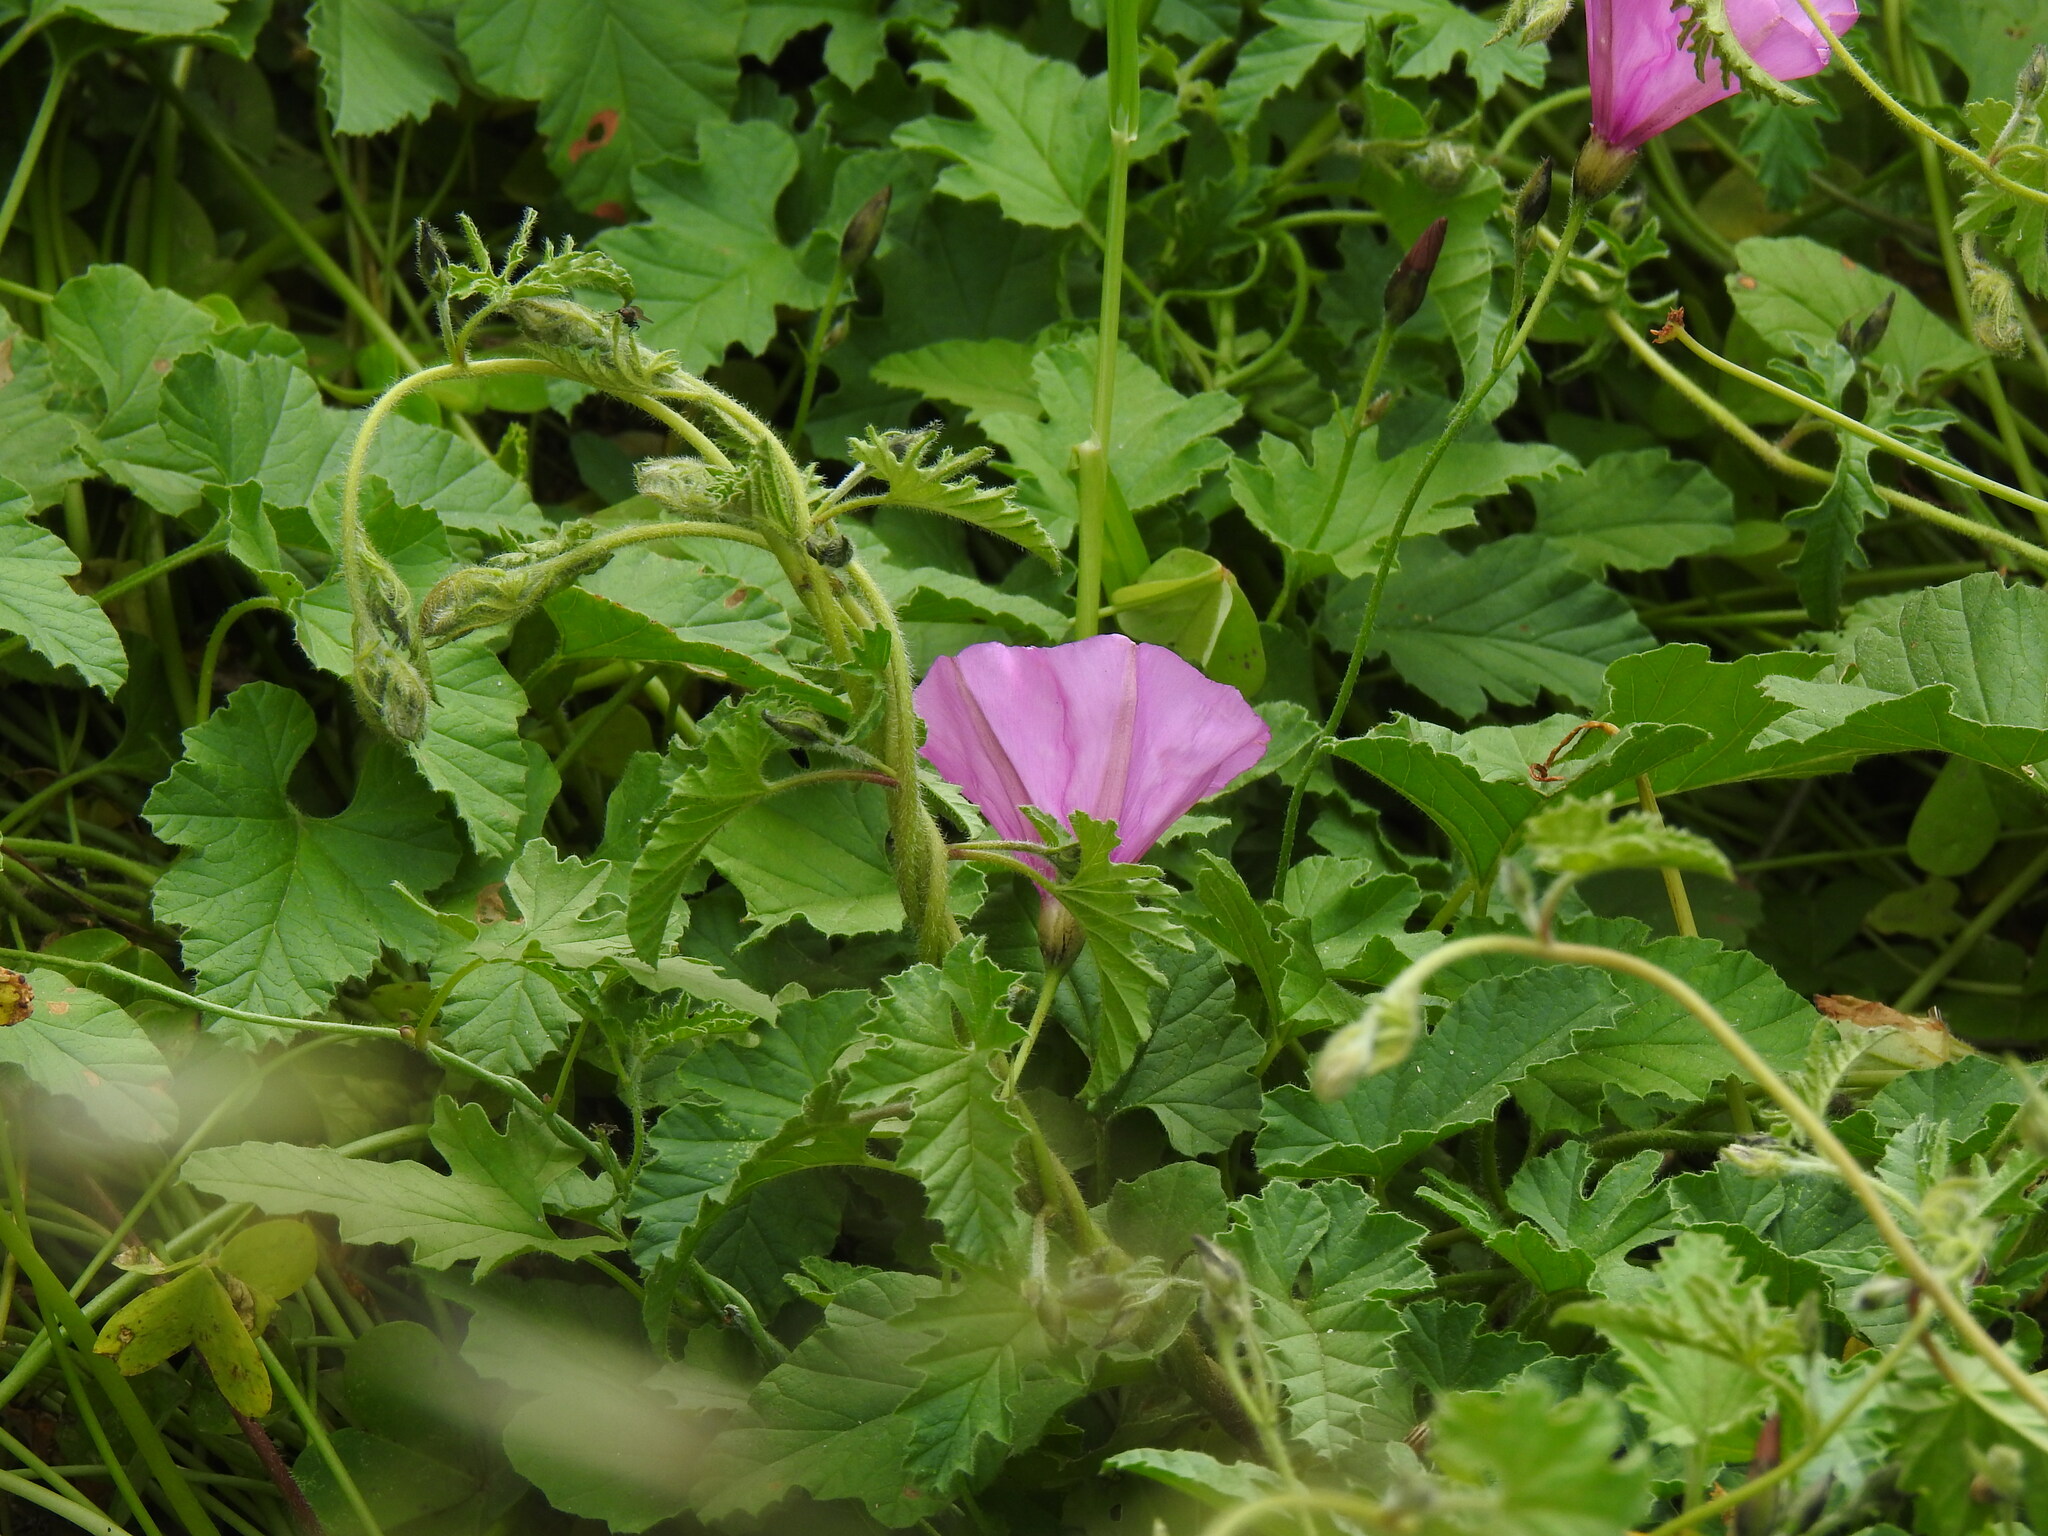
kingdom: Plantae
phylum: Tracheophyta
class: Magnoliopsida
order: Solanales
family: Convolvulaceae
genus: Convolvulus
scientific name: Convolvulus althaeoides
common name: Mallow bindweed
